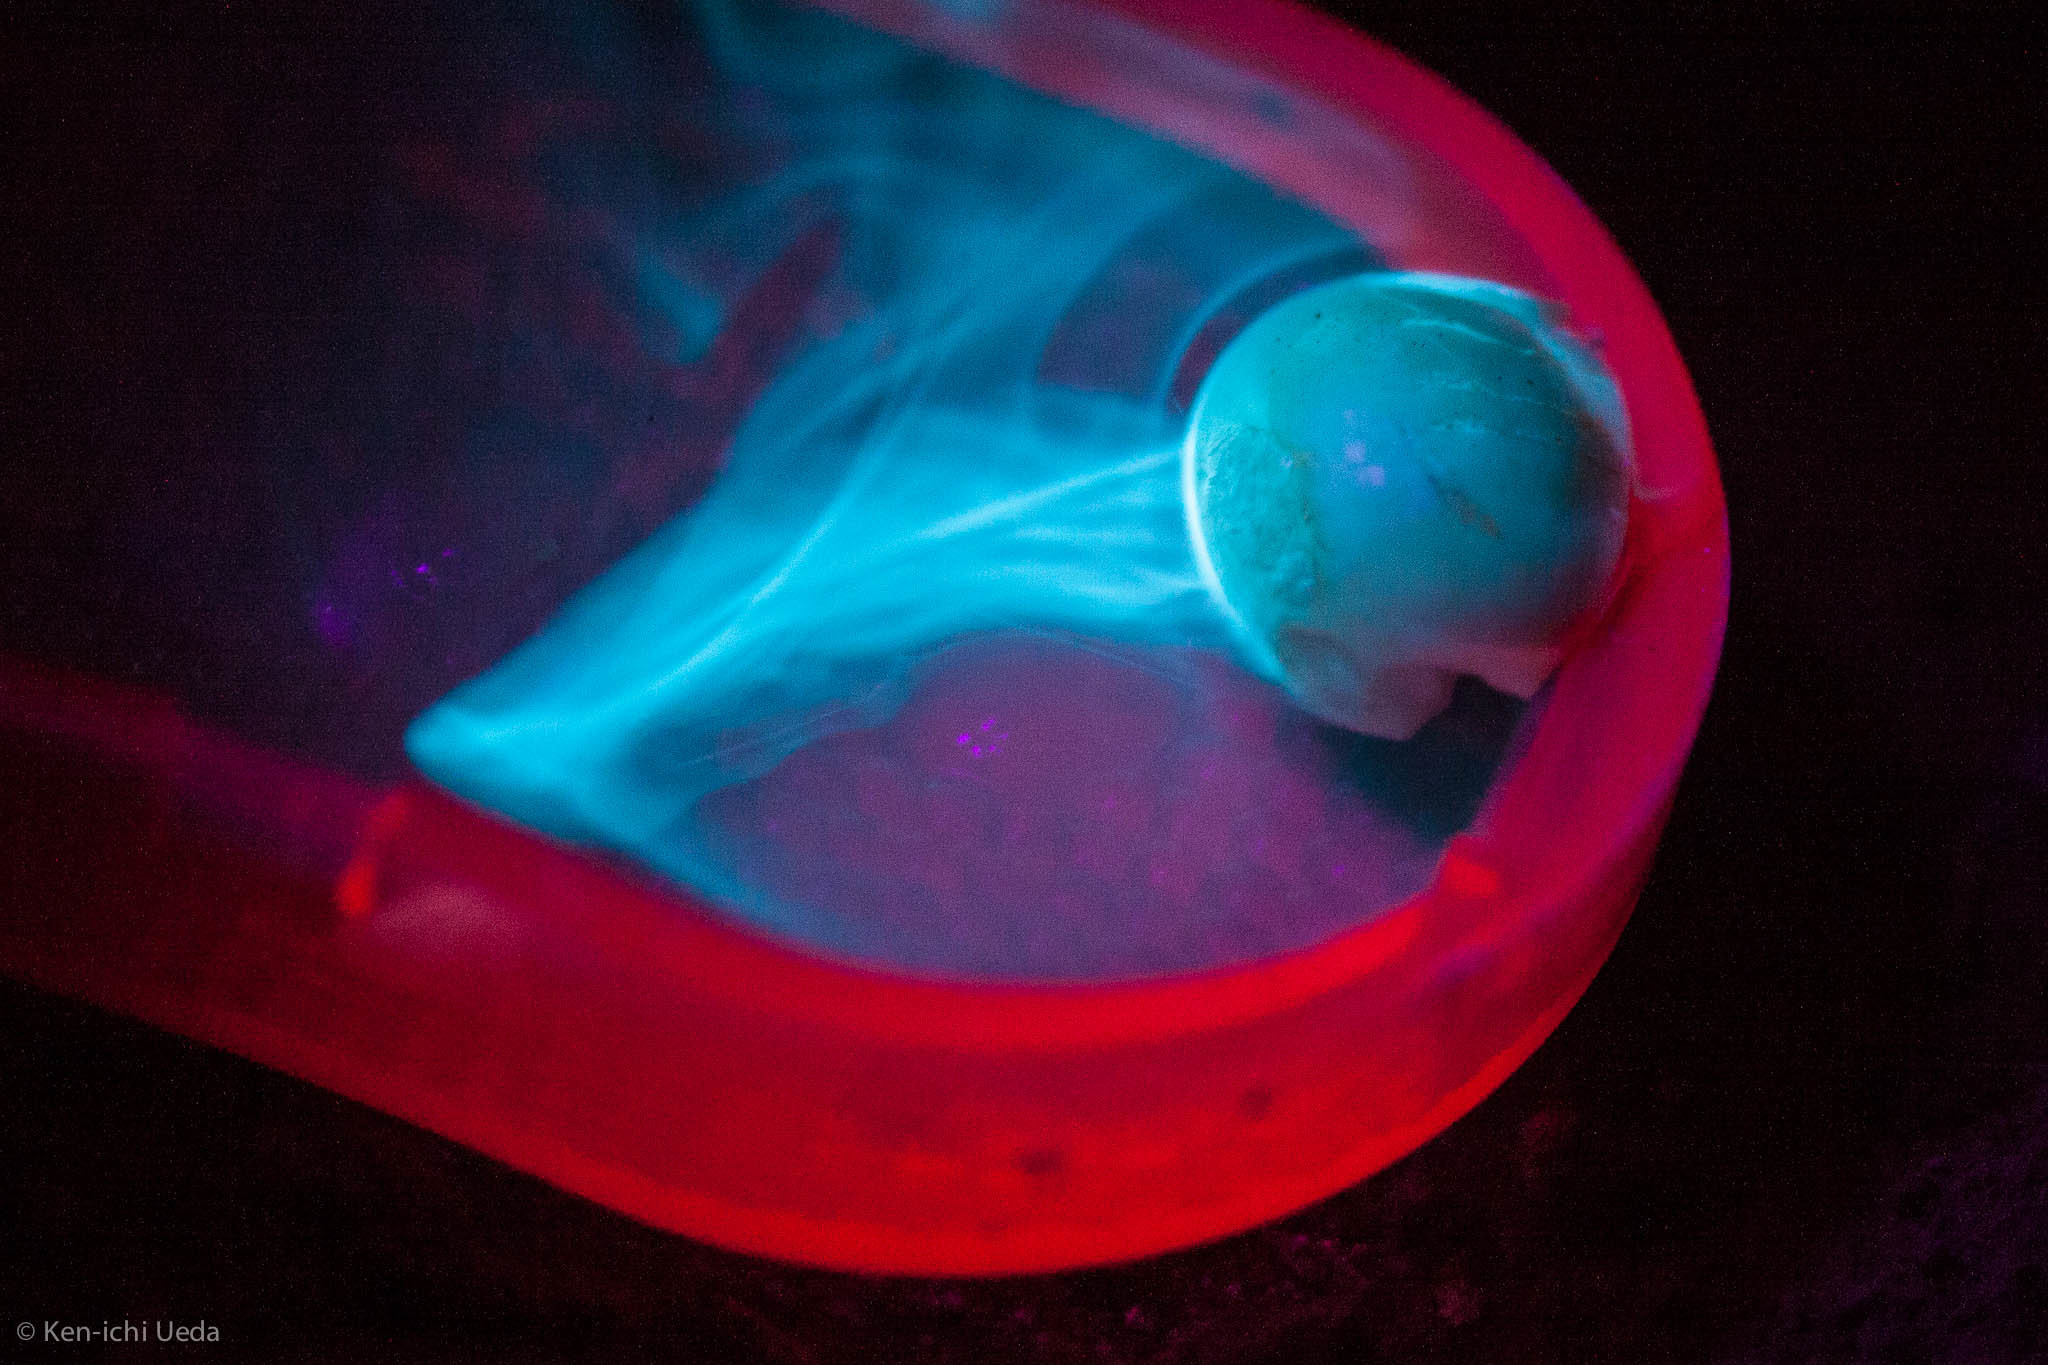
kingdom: Plantae
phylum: Tracheophyta
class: Magnoliopsida
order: Laurales
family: Lauraceae
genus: Umbellularia
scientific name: Umbellularia californica
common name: California bay
